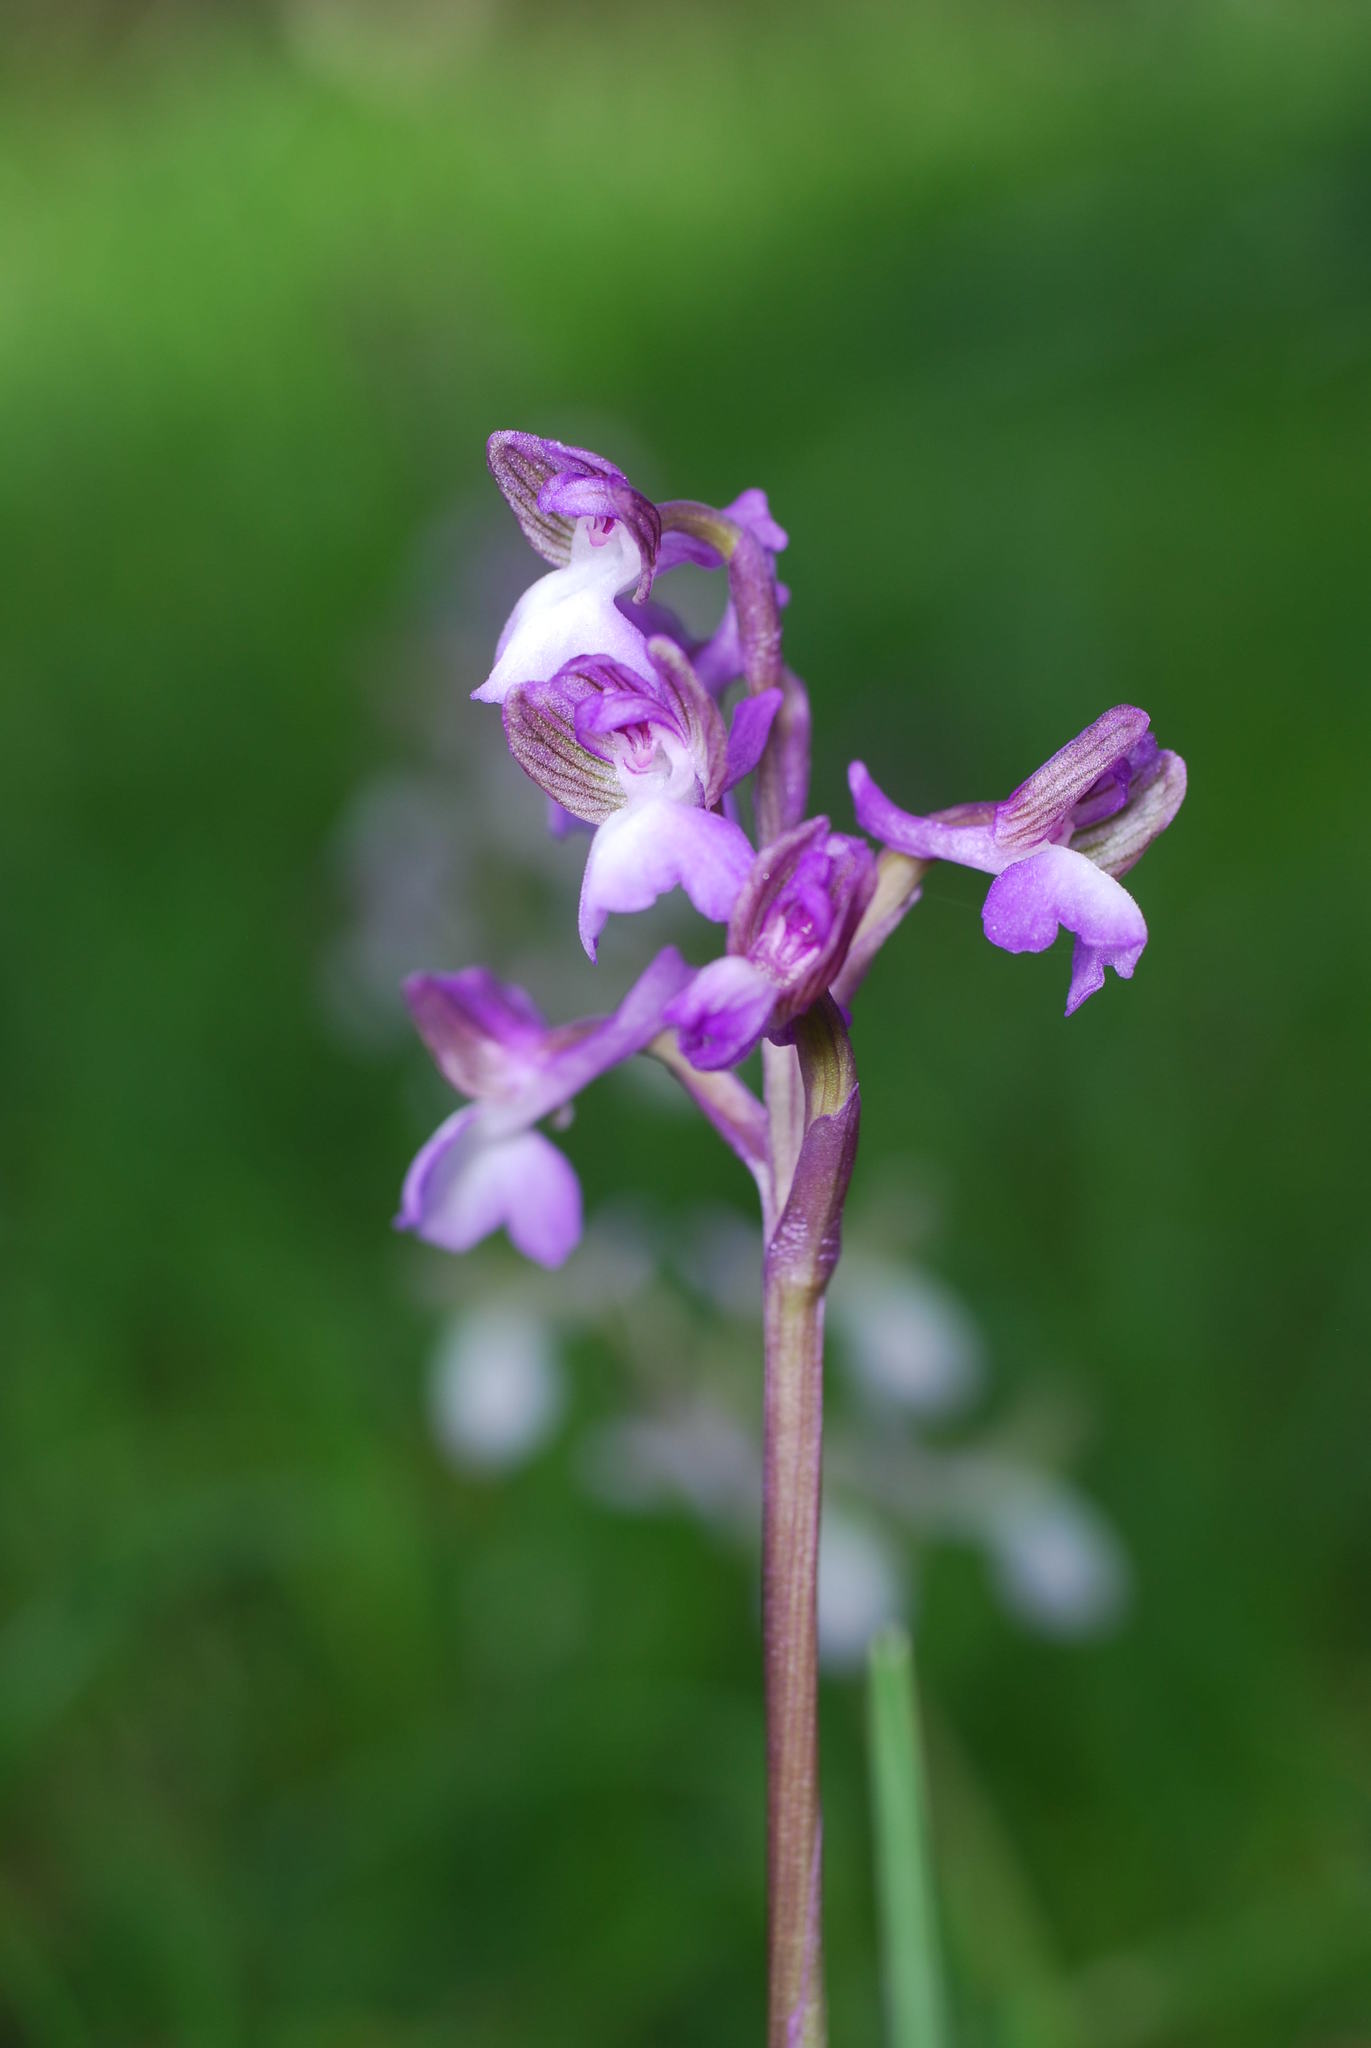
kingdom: Plantae
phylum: Tracheophyta
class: Liliopsida
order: Asparagales
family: Orchidaceae
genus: Anacamptis
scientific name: Anacamptis morio
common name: Green-winged orchid
